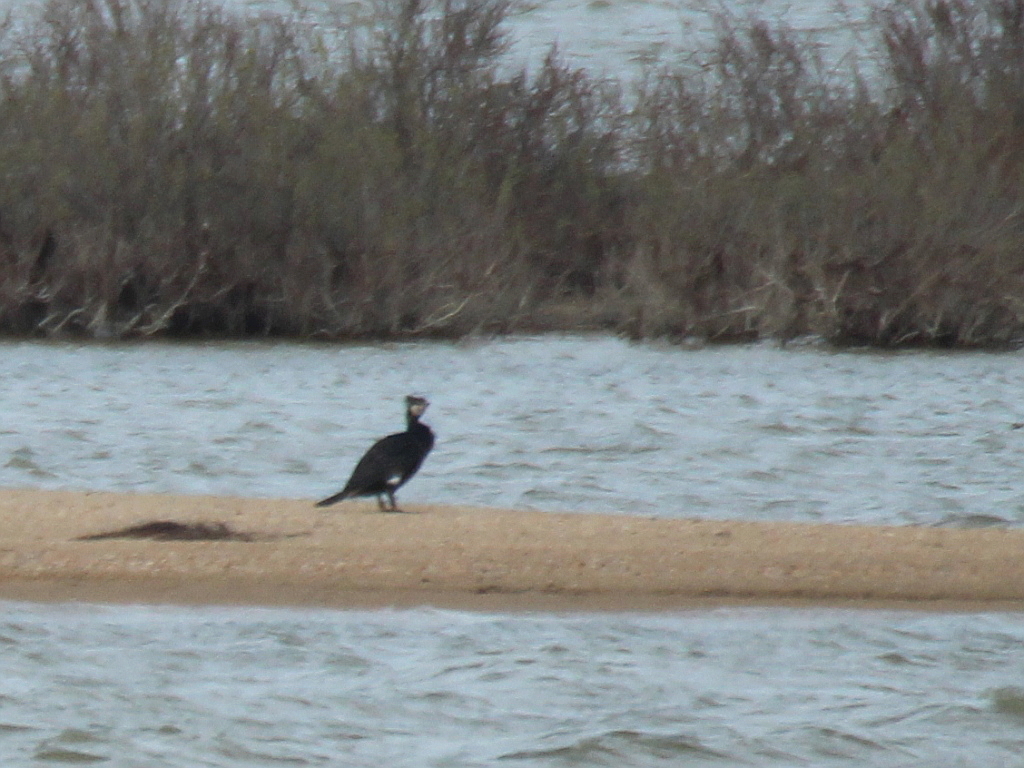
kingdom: Animalia
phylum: Chordata
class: Aves
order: Suliformes
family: Phalacrocoracidae
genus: Phalacrocorax
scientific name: Phalacrocorax carbo
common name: Great cormorant
